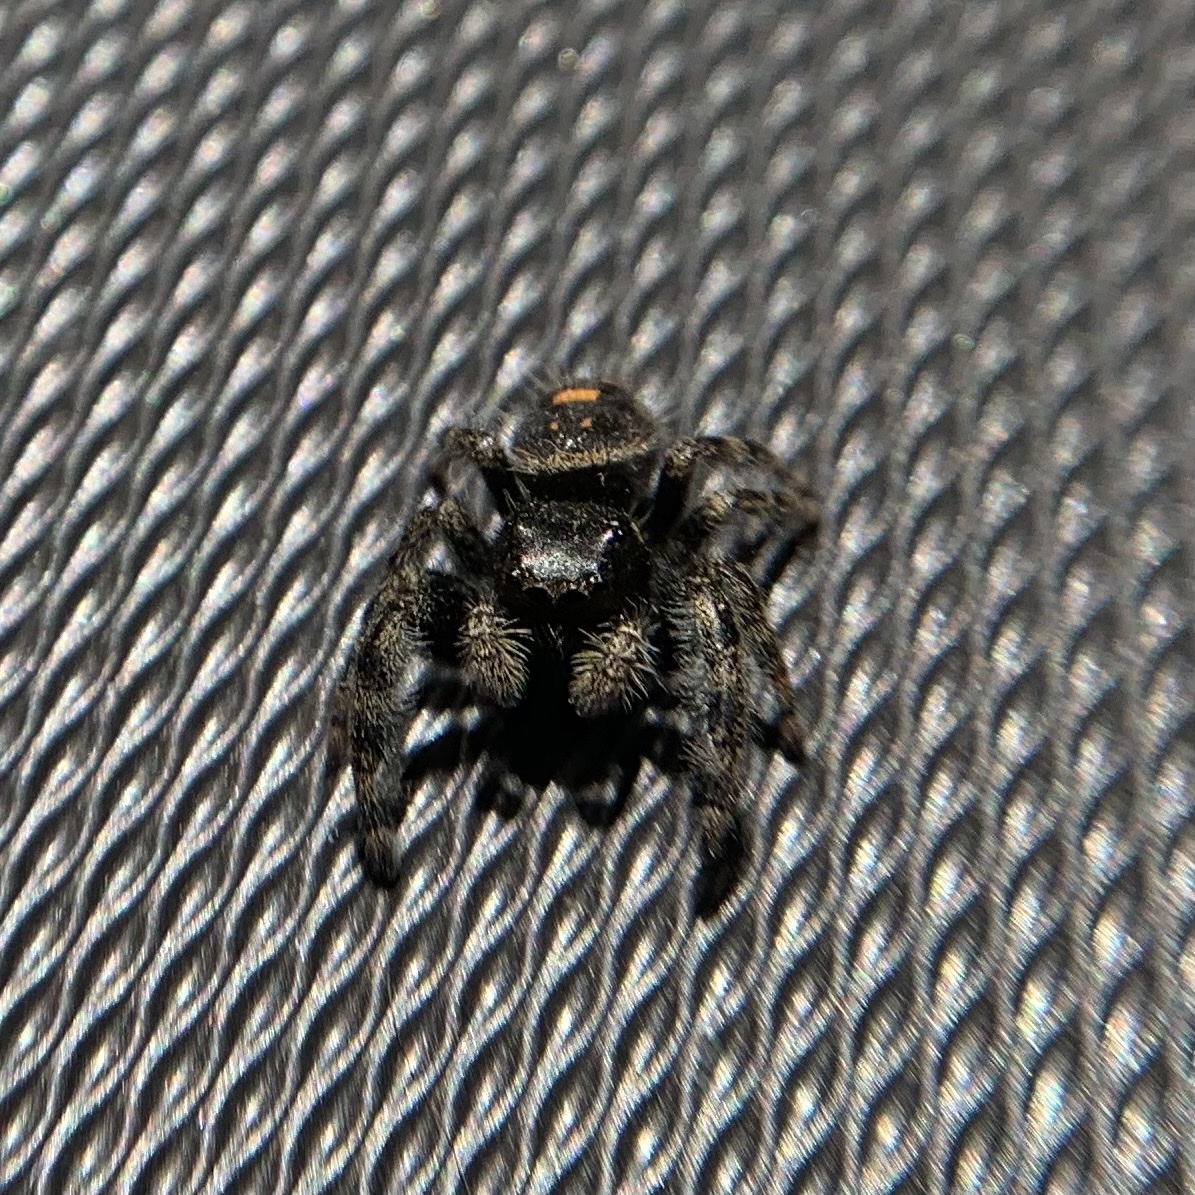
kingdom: Animalia
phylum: Arthropoda
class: Arachnida
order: Araneae
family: Salticidae
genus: Phidippus
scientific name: Phidippus audax
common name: Bold jumper
